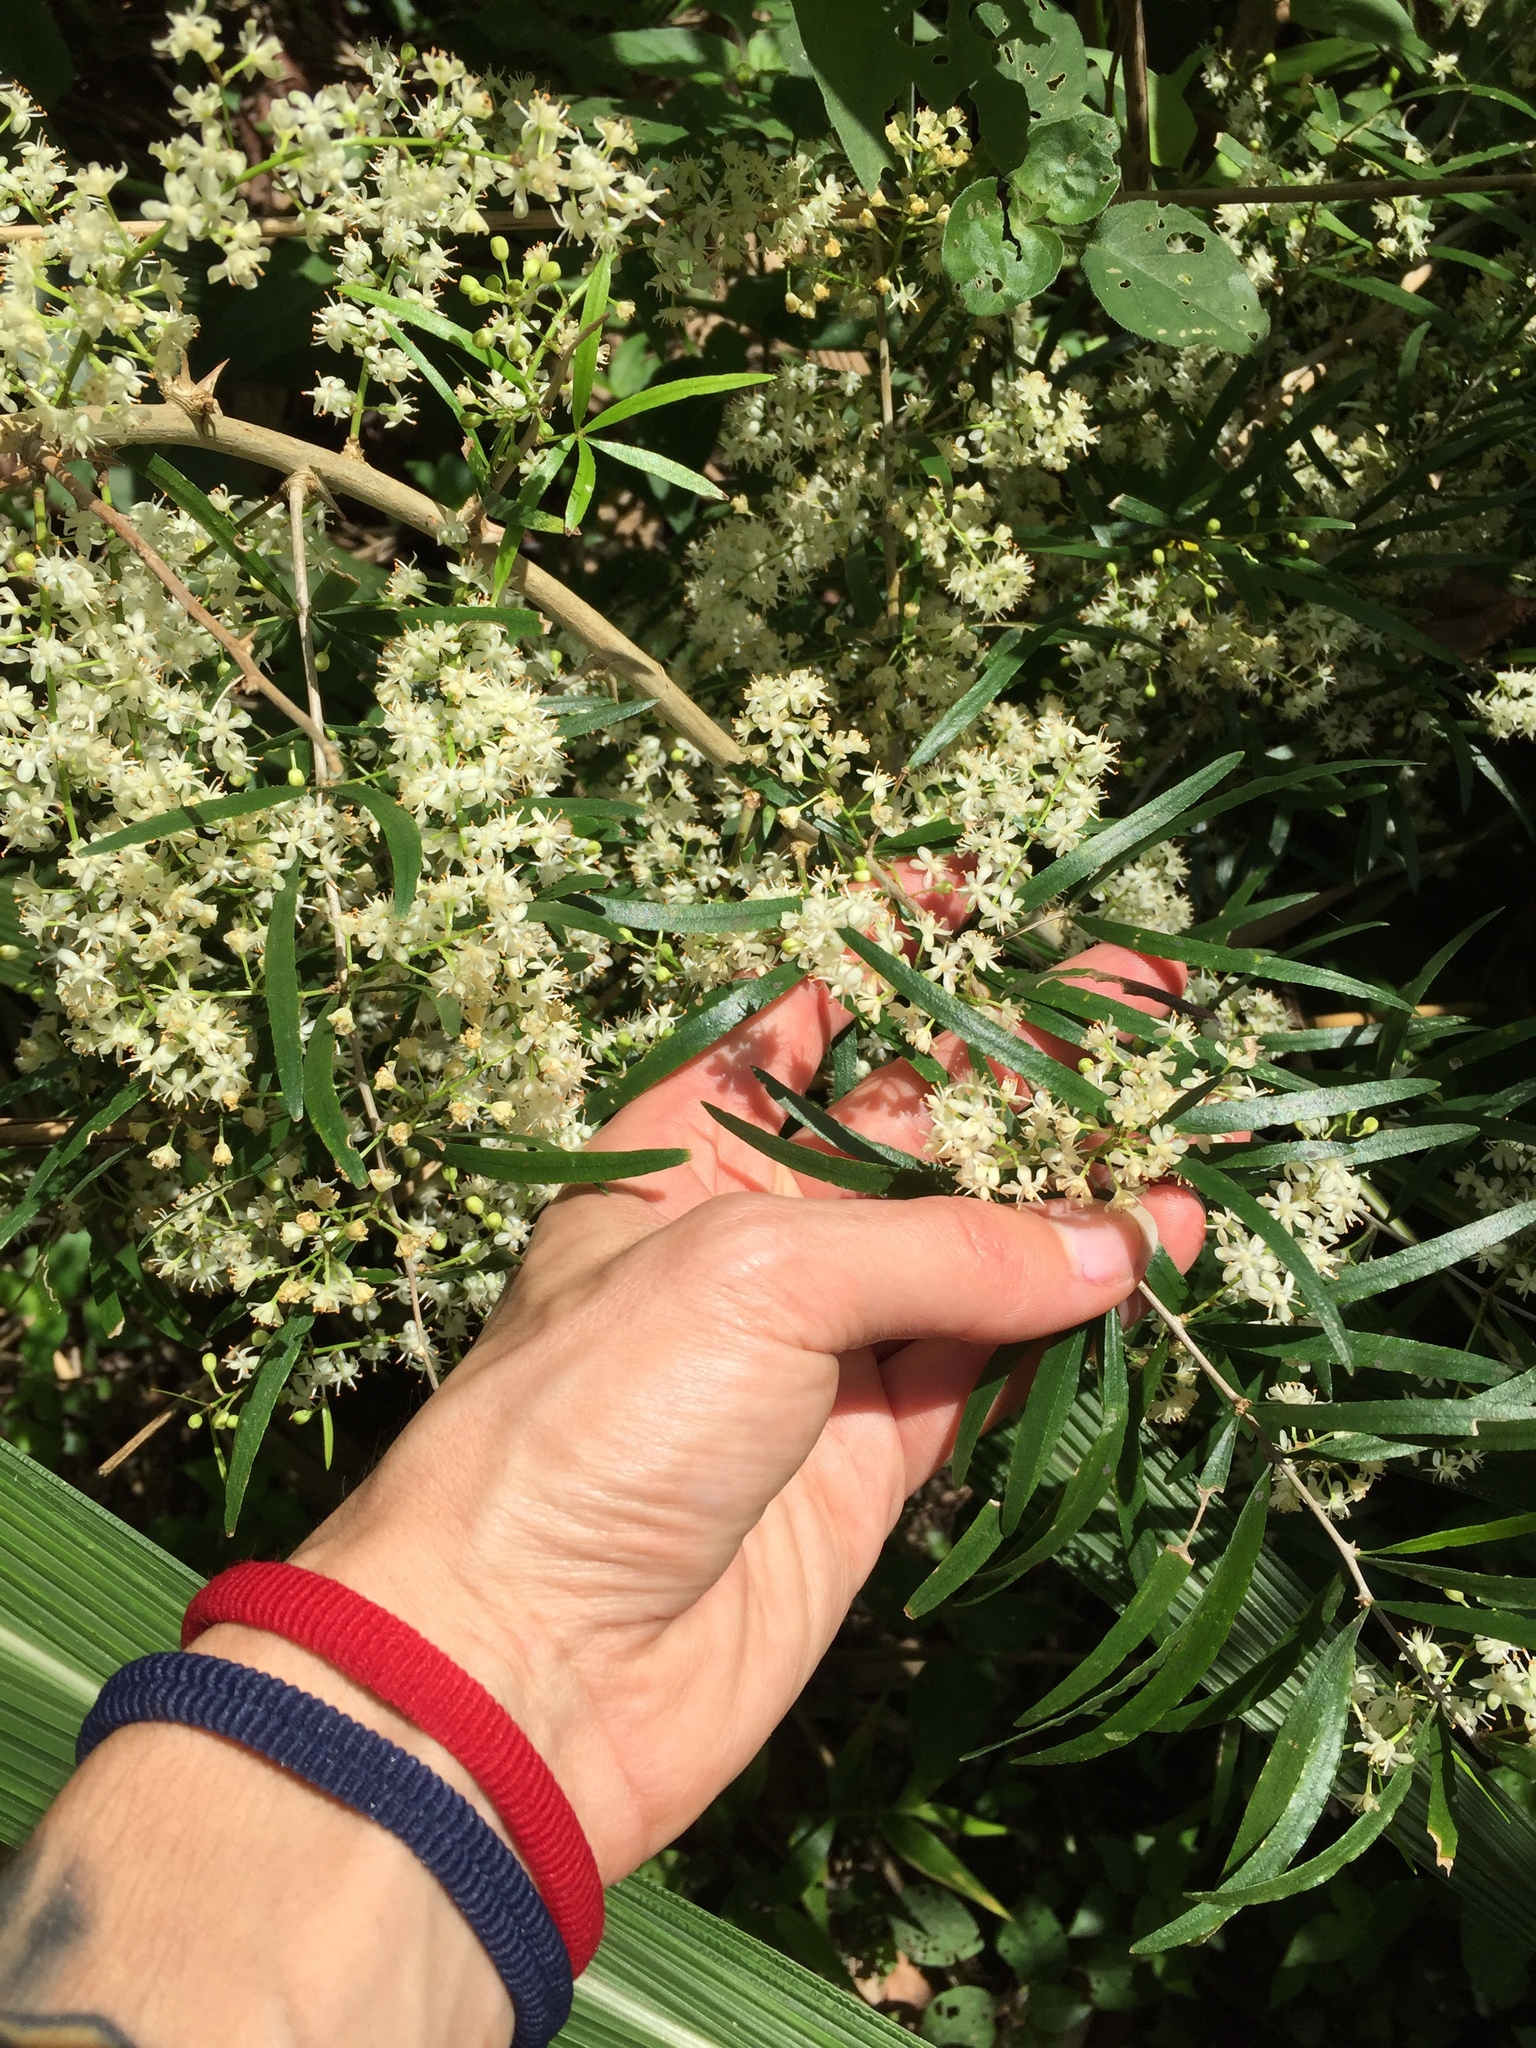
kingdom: Plantae
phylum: Tracheophyta
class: Liliopsida
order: Asparagales
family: Asparagaceae
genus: Asparagus
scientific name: Asparagus falcatus
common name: Asparagus
